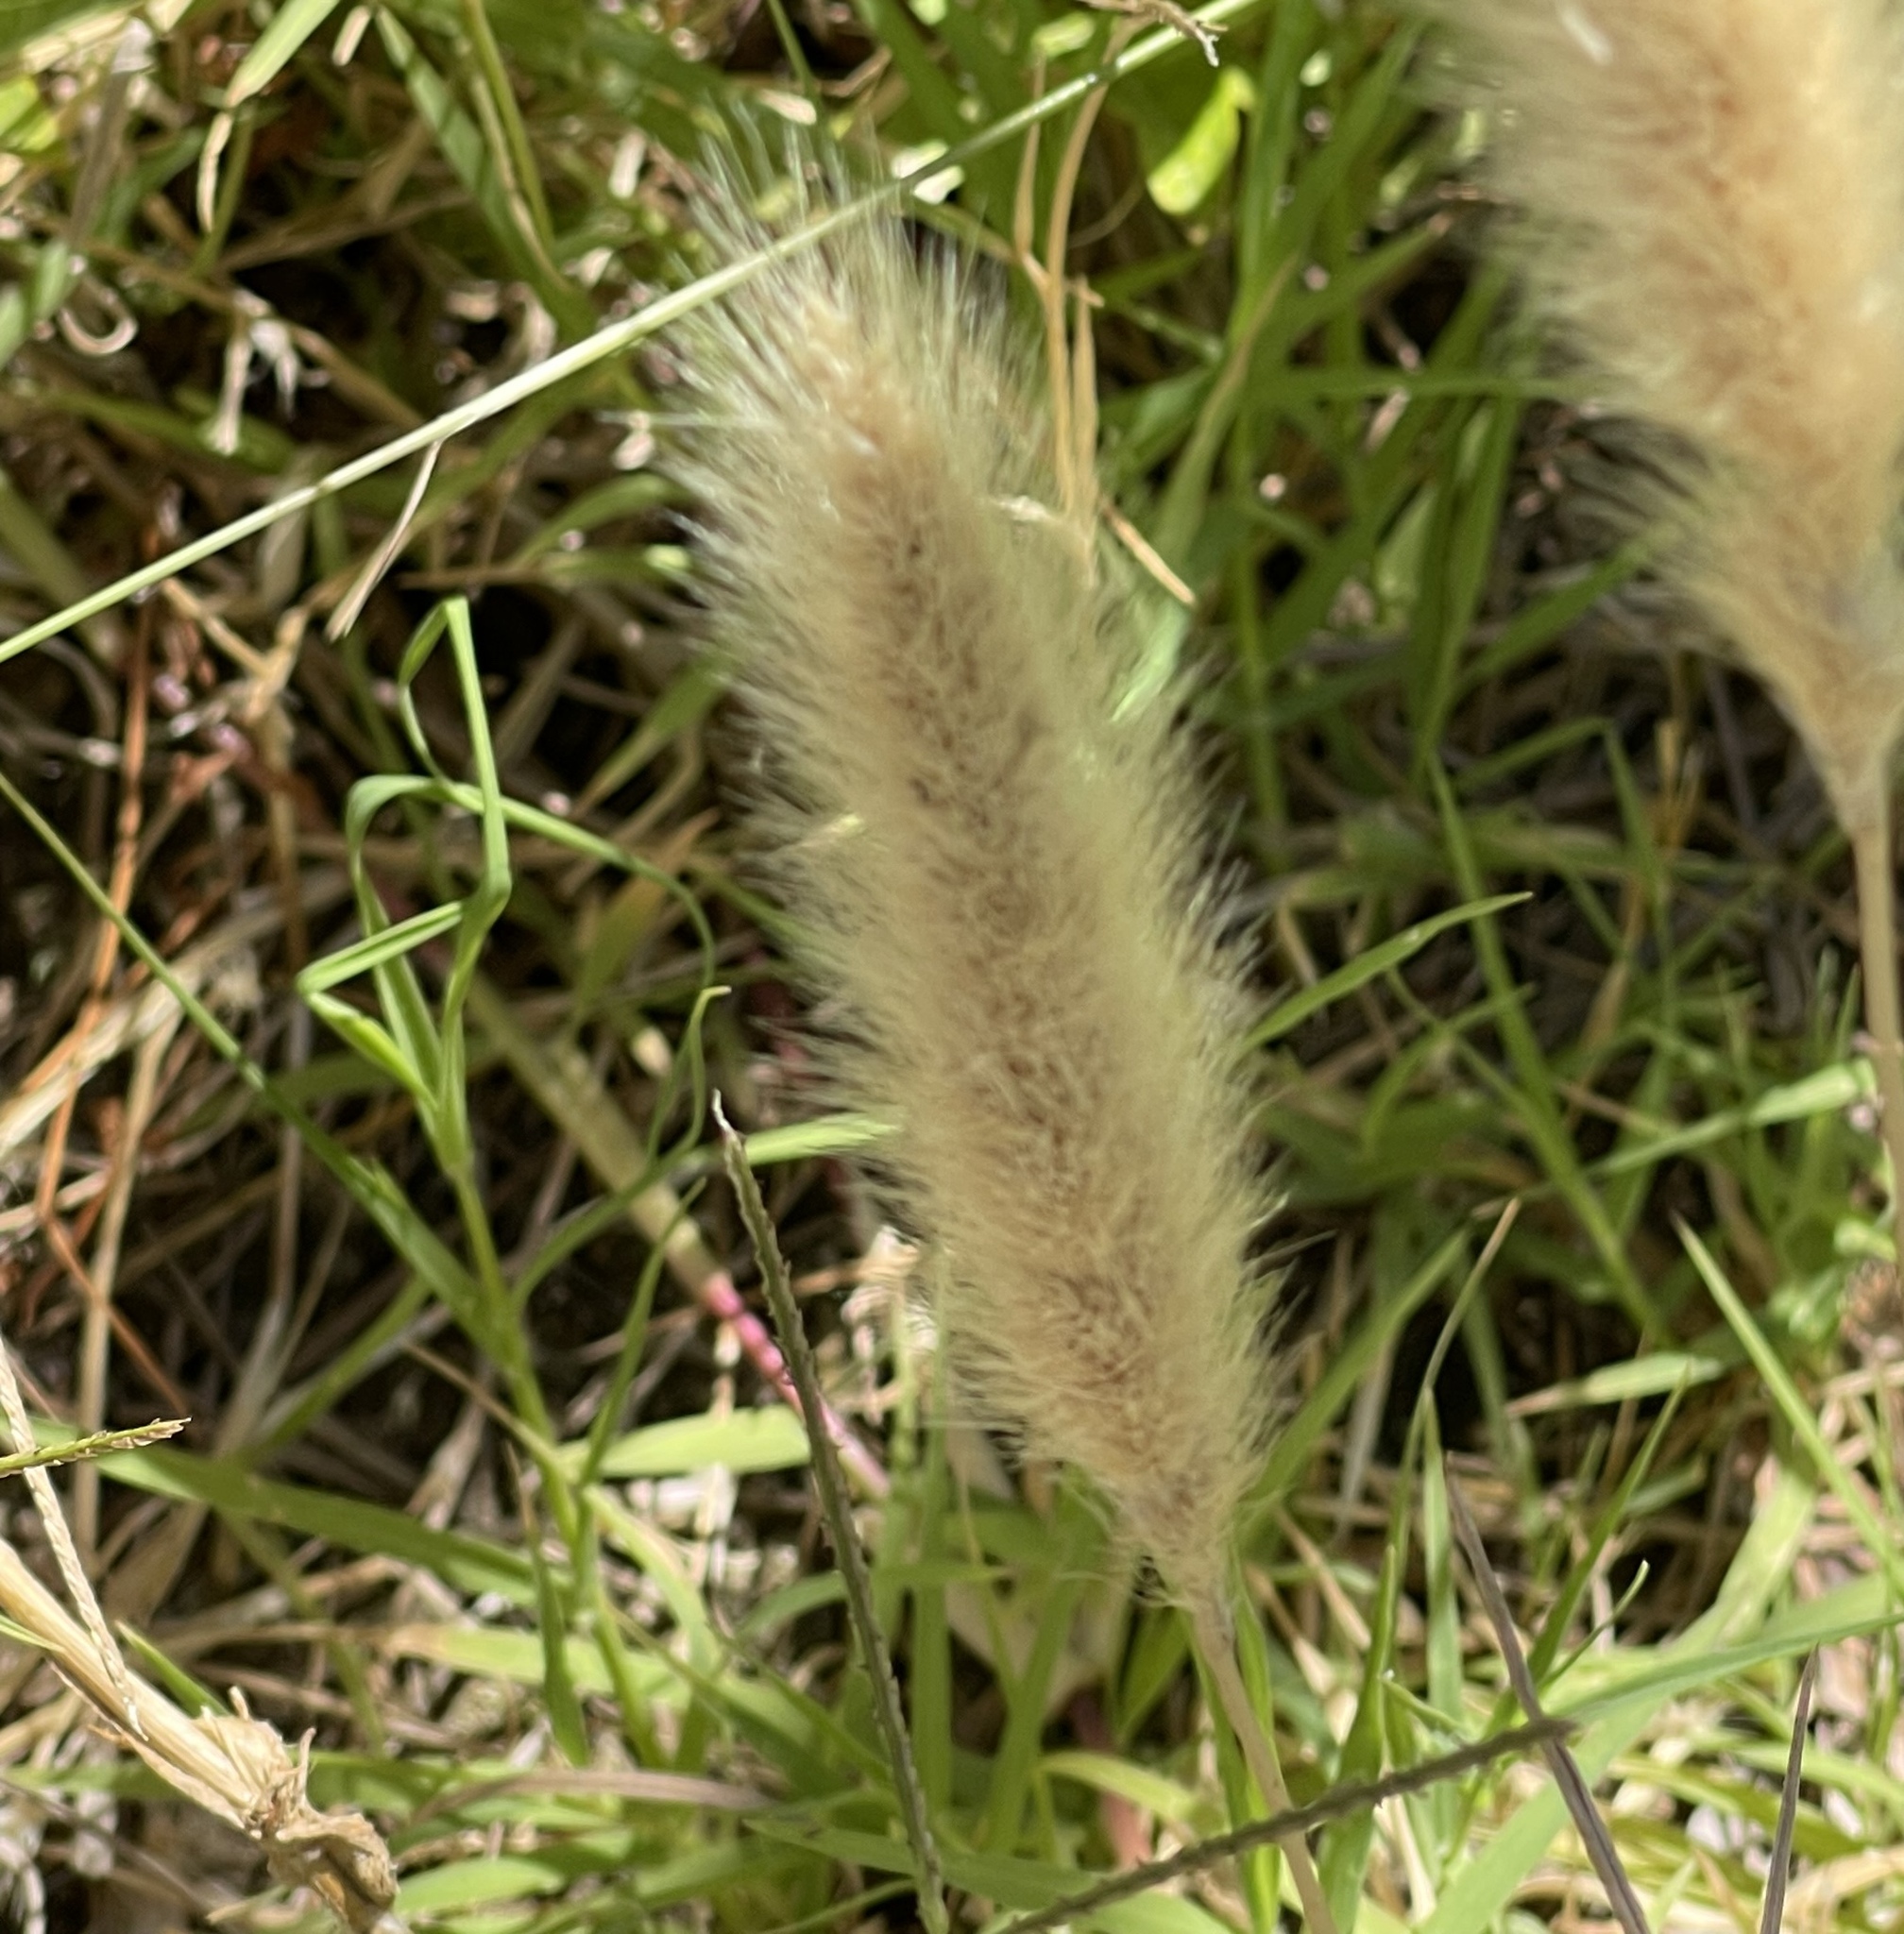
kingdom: Plantae
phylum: Tracheophyta
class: Liliopsida
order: Poales
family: Poaceae
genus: Polypogon
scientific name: Polypogon monspeliensis
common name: Annual rabbitsfoot grass
